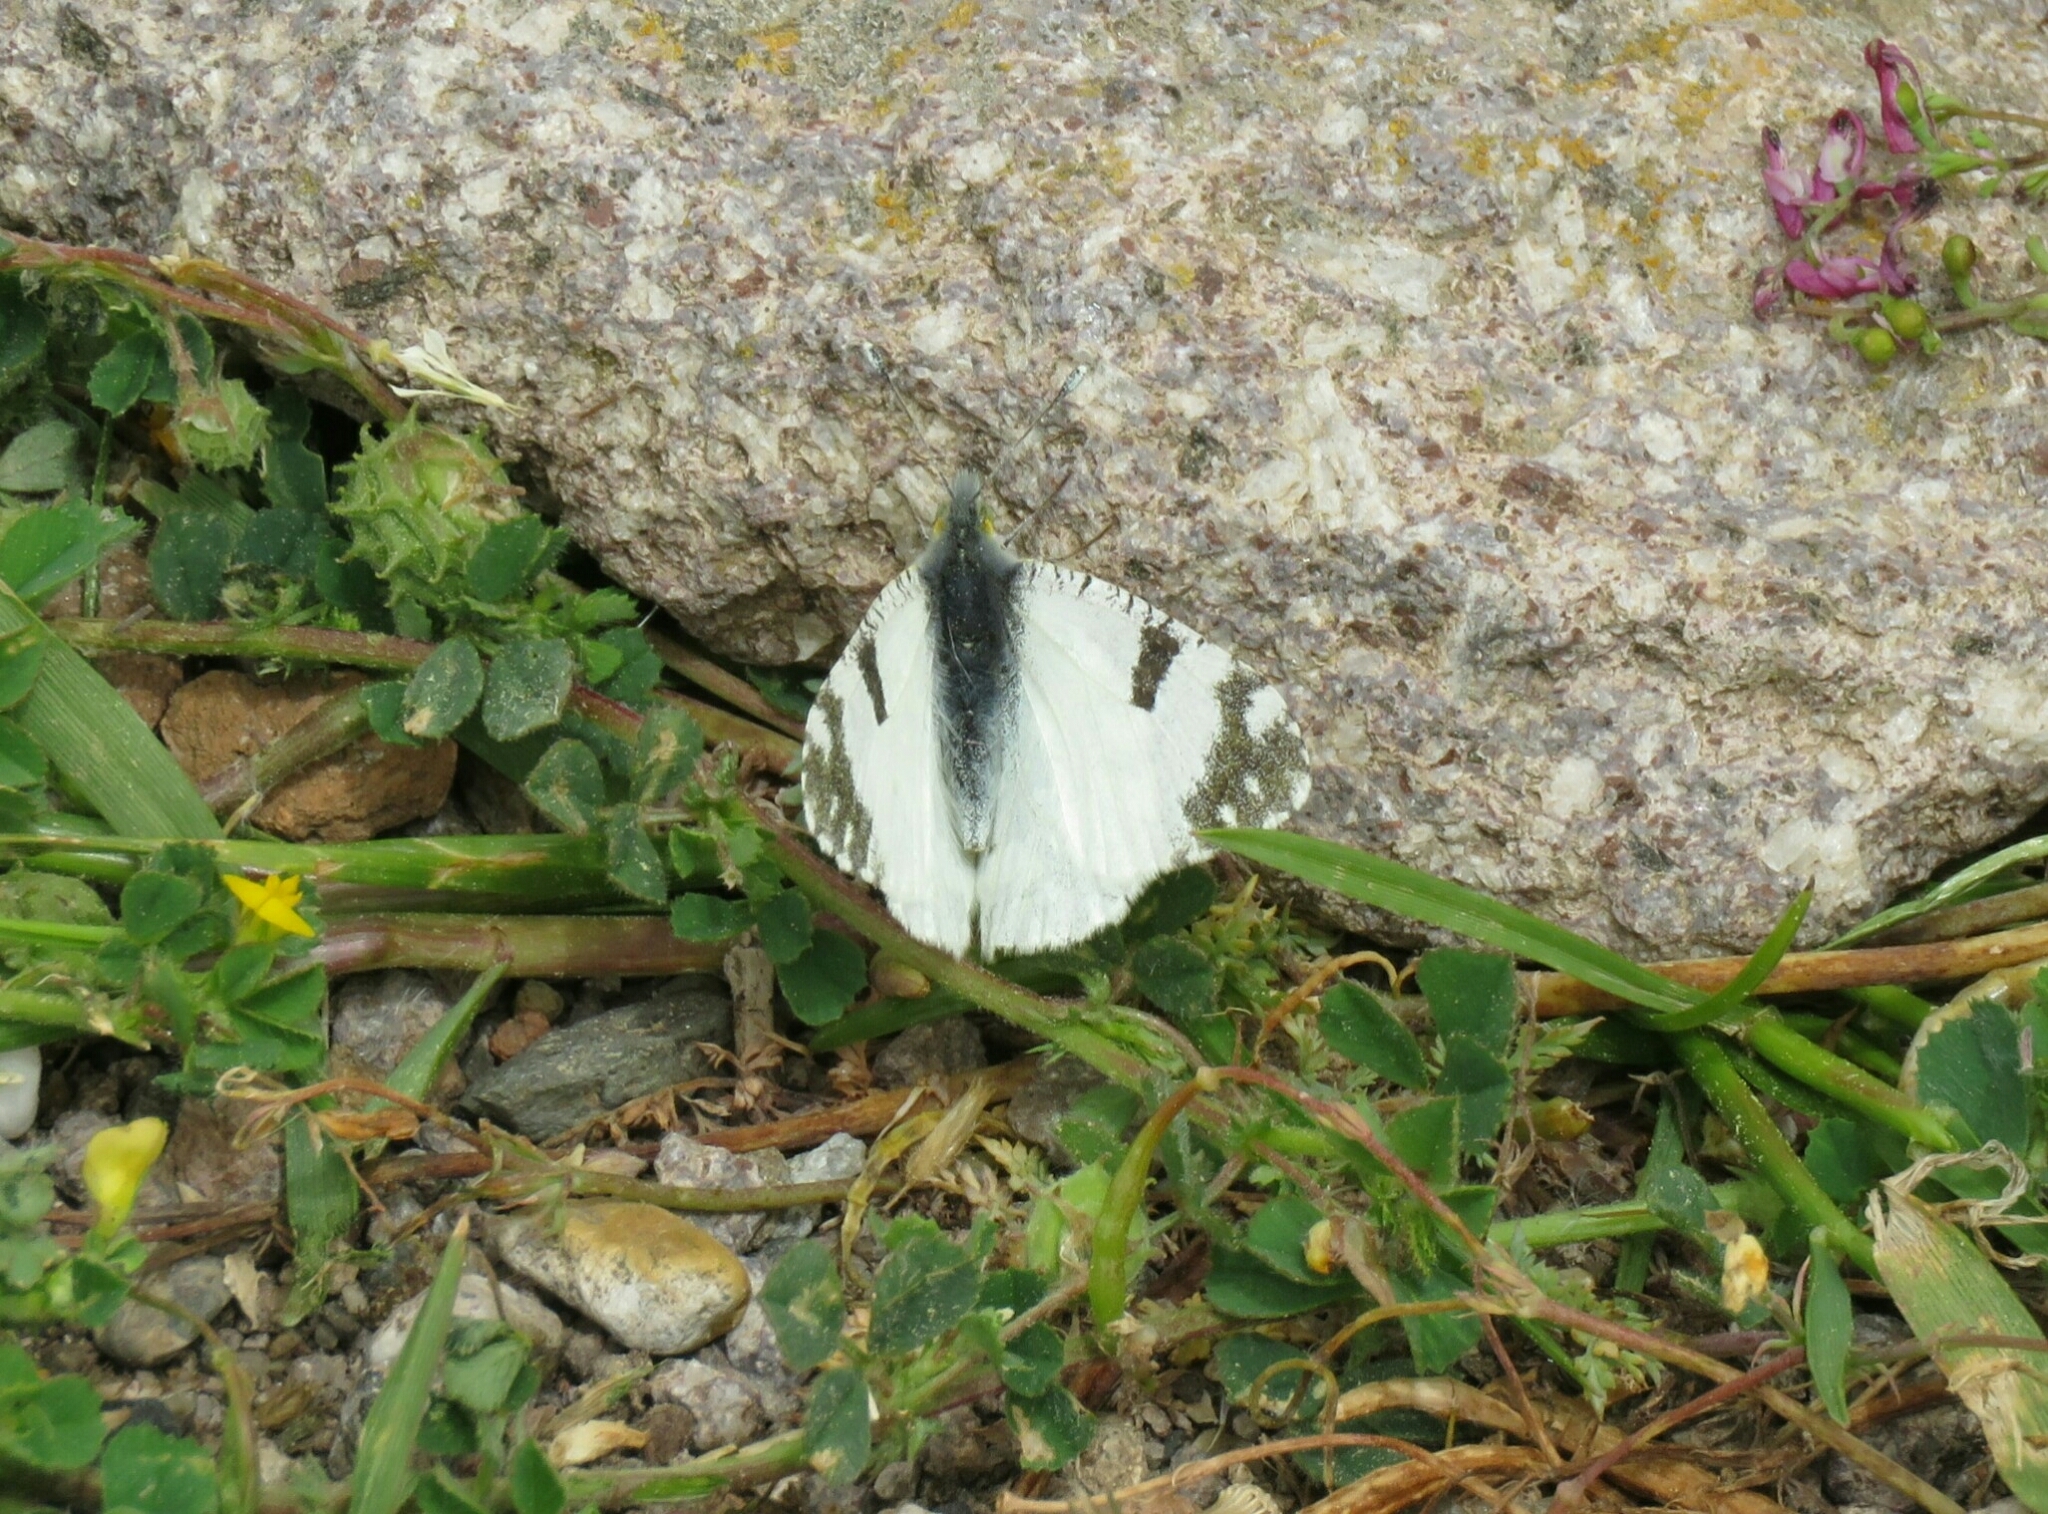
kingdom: Animalia
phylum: Arthropoda
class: Insecta
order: Lepidoptera
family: Pieridae
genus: Euchloe
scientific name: Euchloe ausonia
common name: Eastern dappled white
